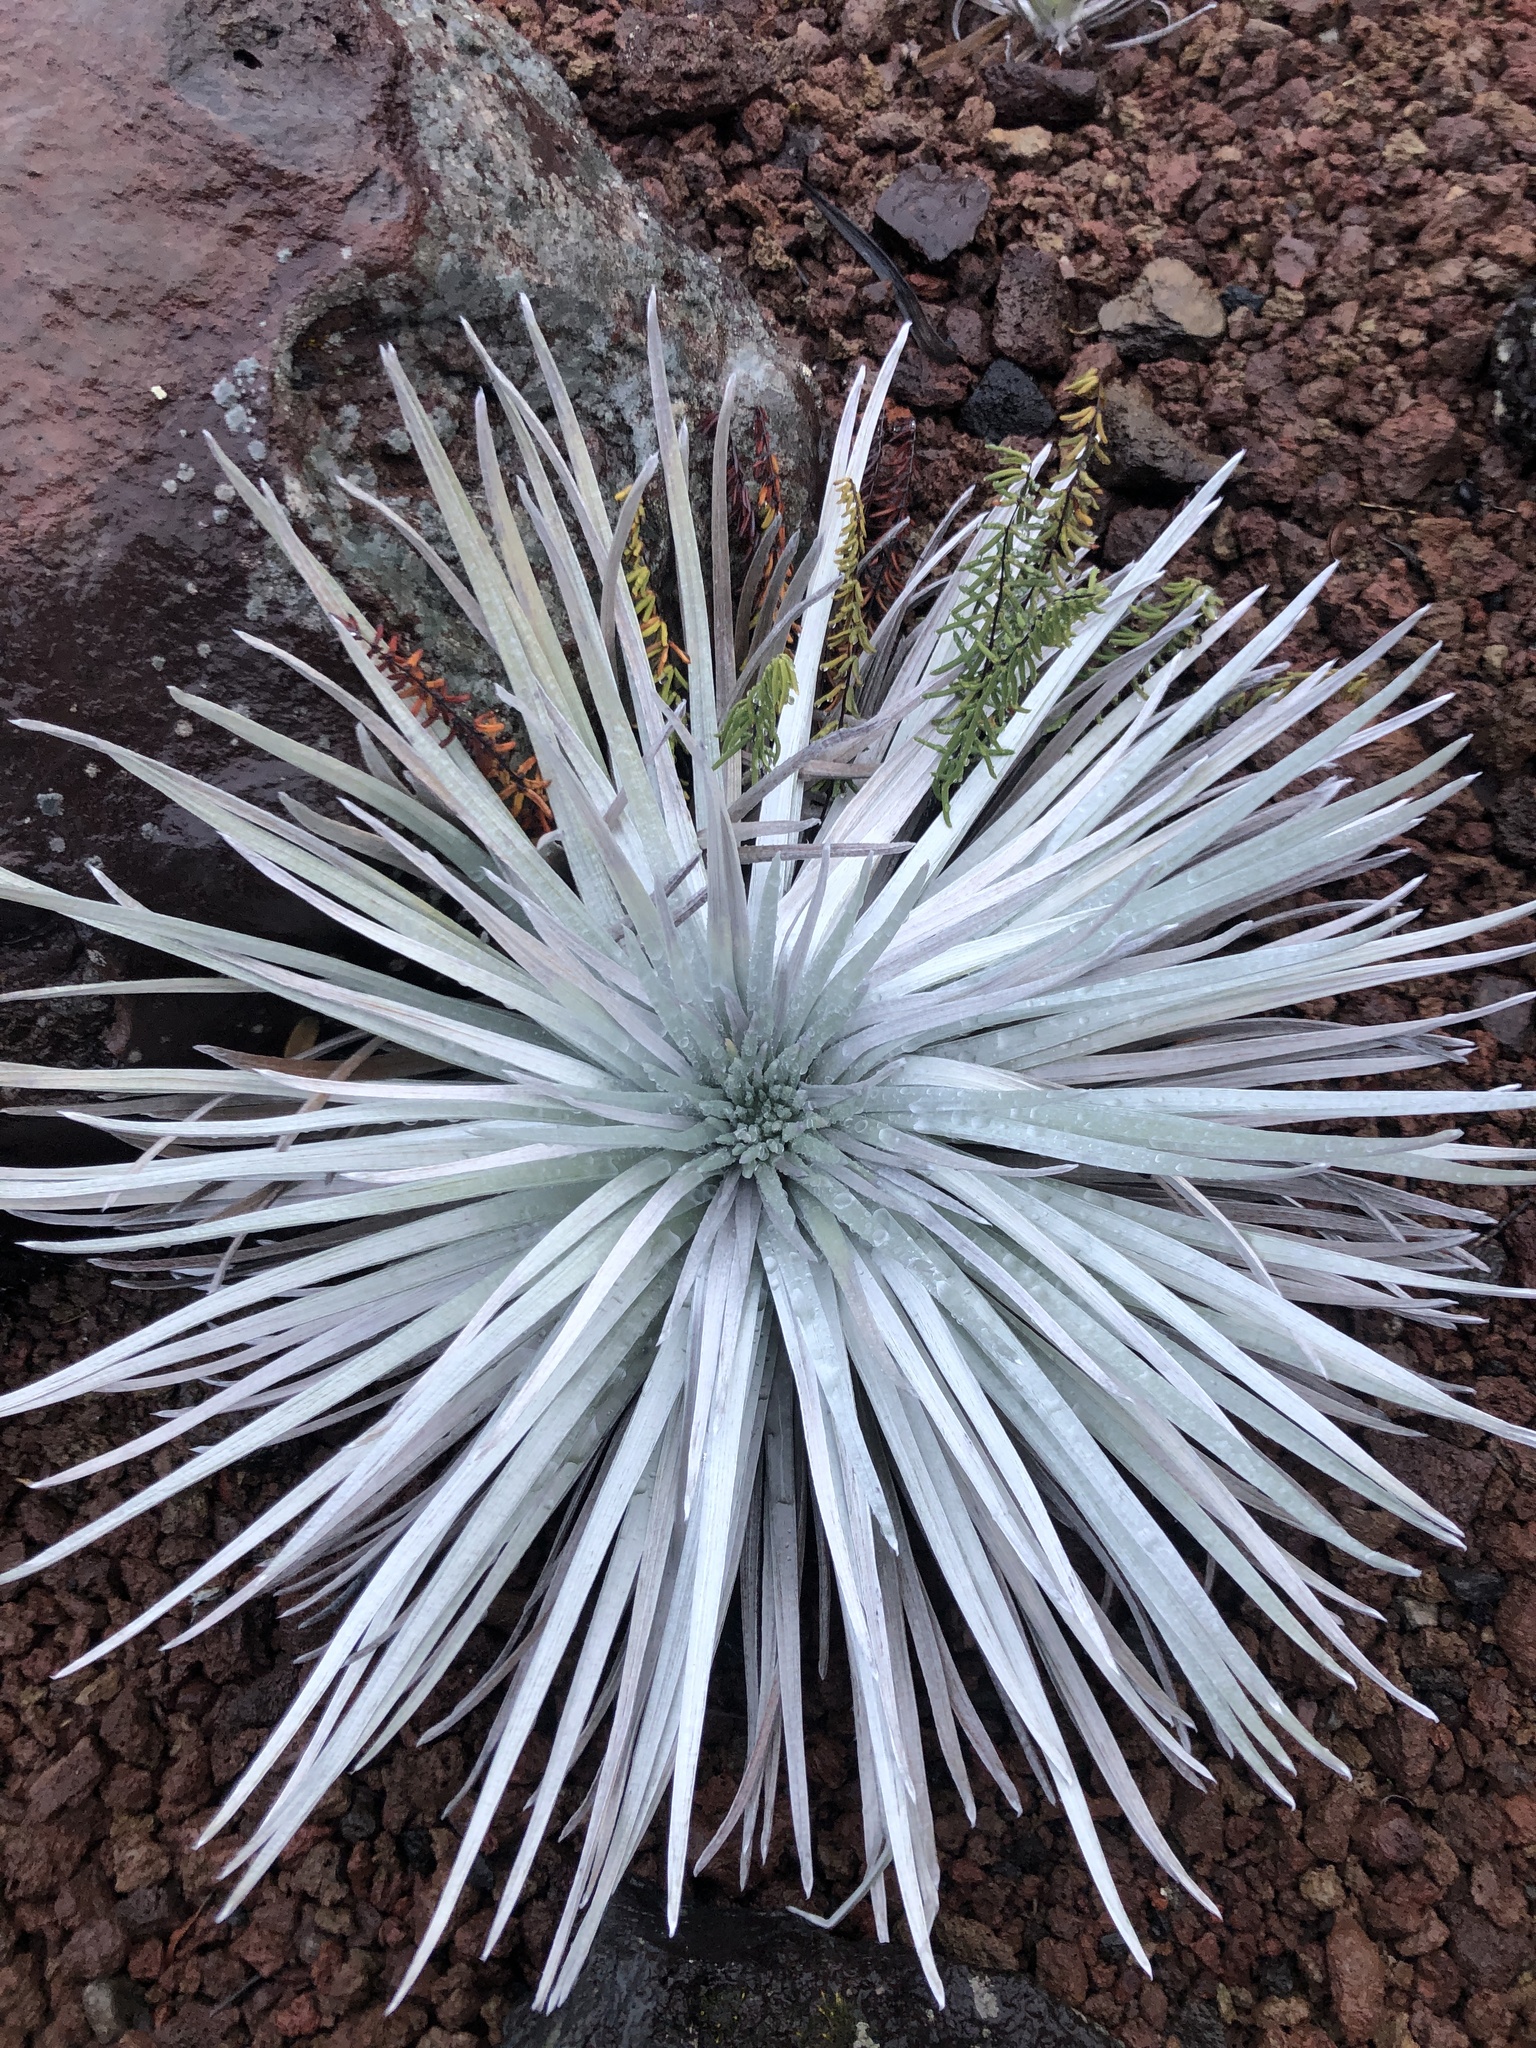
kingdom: Plantae
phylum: Tracheophyta
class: Magnoliopsida
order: Asterales
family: Asteraceae
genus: Argyroxiphium
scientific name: Argyroxiphium sandwicense
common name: Silversword
